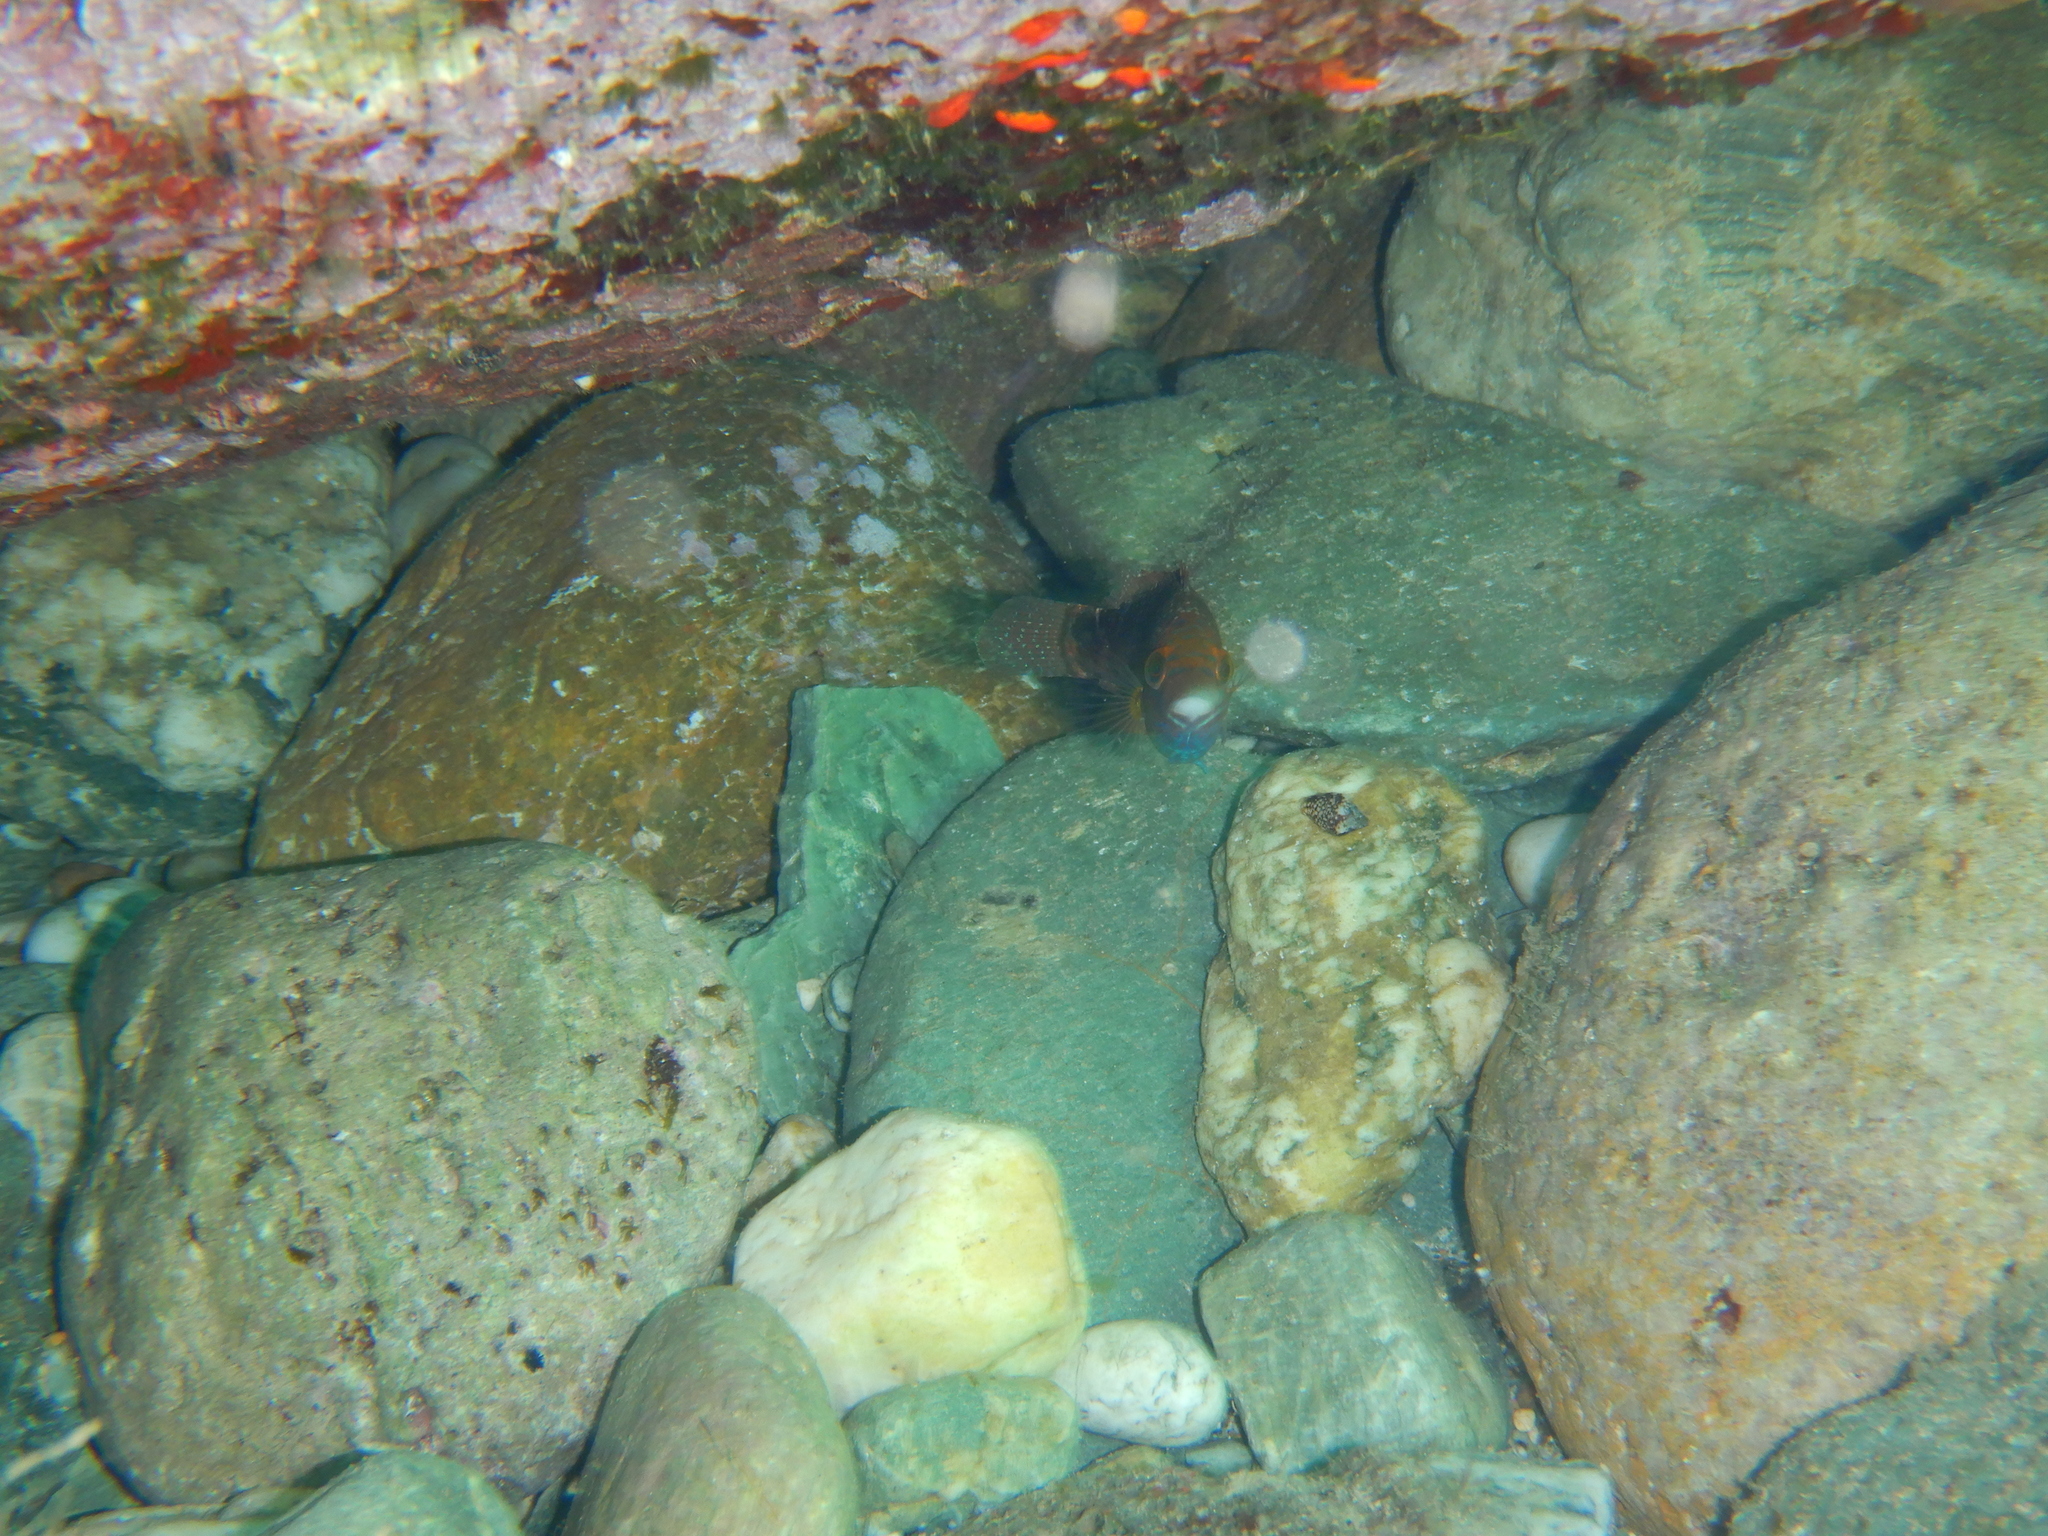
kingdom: Animalia
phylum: Chordata
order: Perciformes
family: Labridae
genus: Symphodus
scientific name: Symphodus mediterraneus
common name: Axillary wrasse
